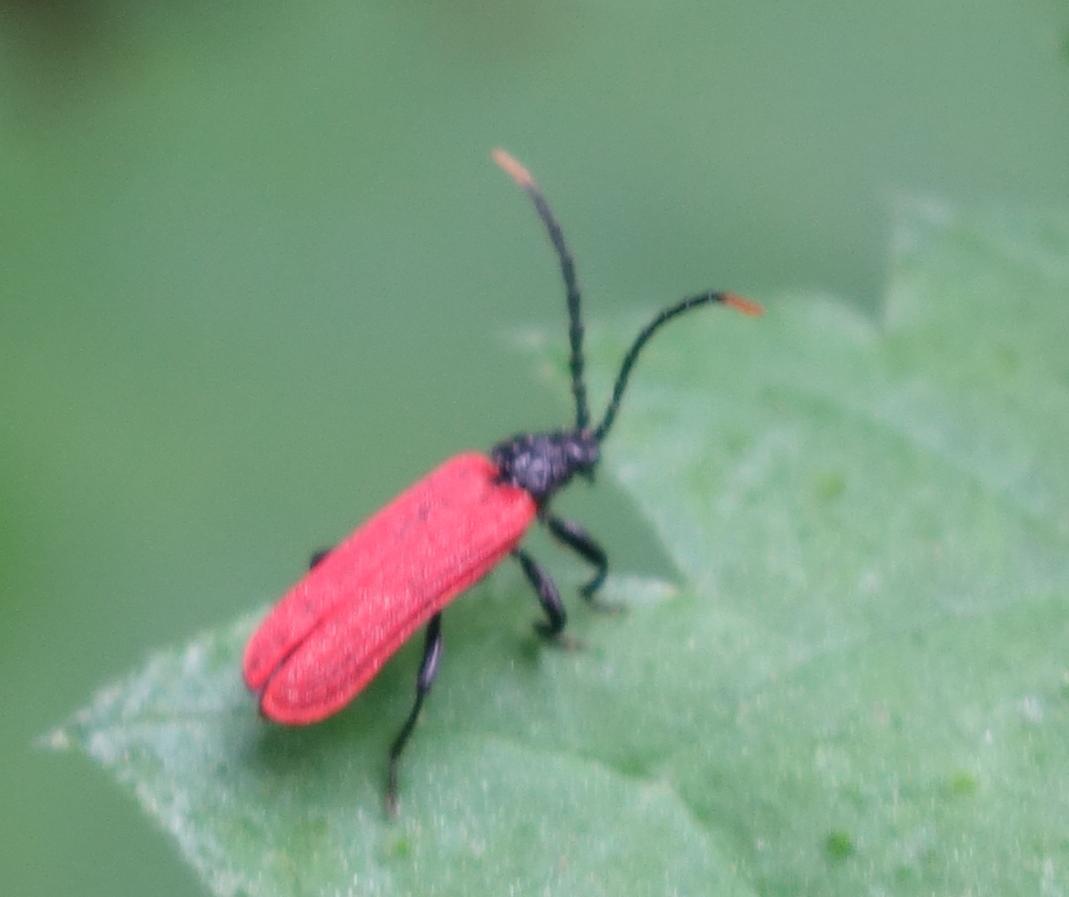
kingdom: Animalia
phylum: Arthropoda
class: Insecta
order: Coleoptera
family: Lycidae
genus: Platycis
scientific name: Platycis minutus
